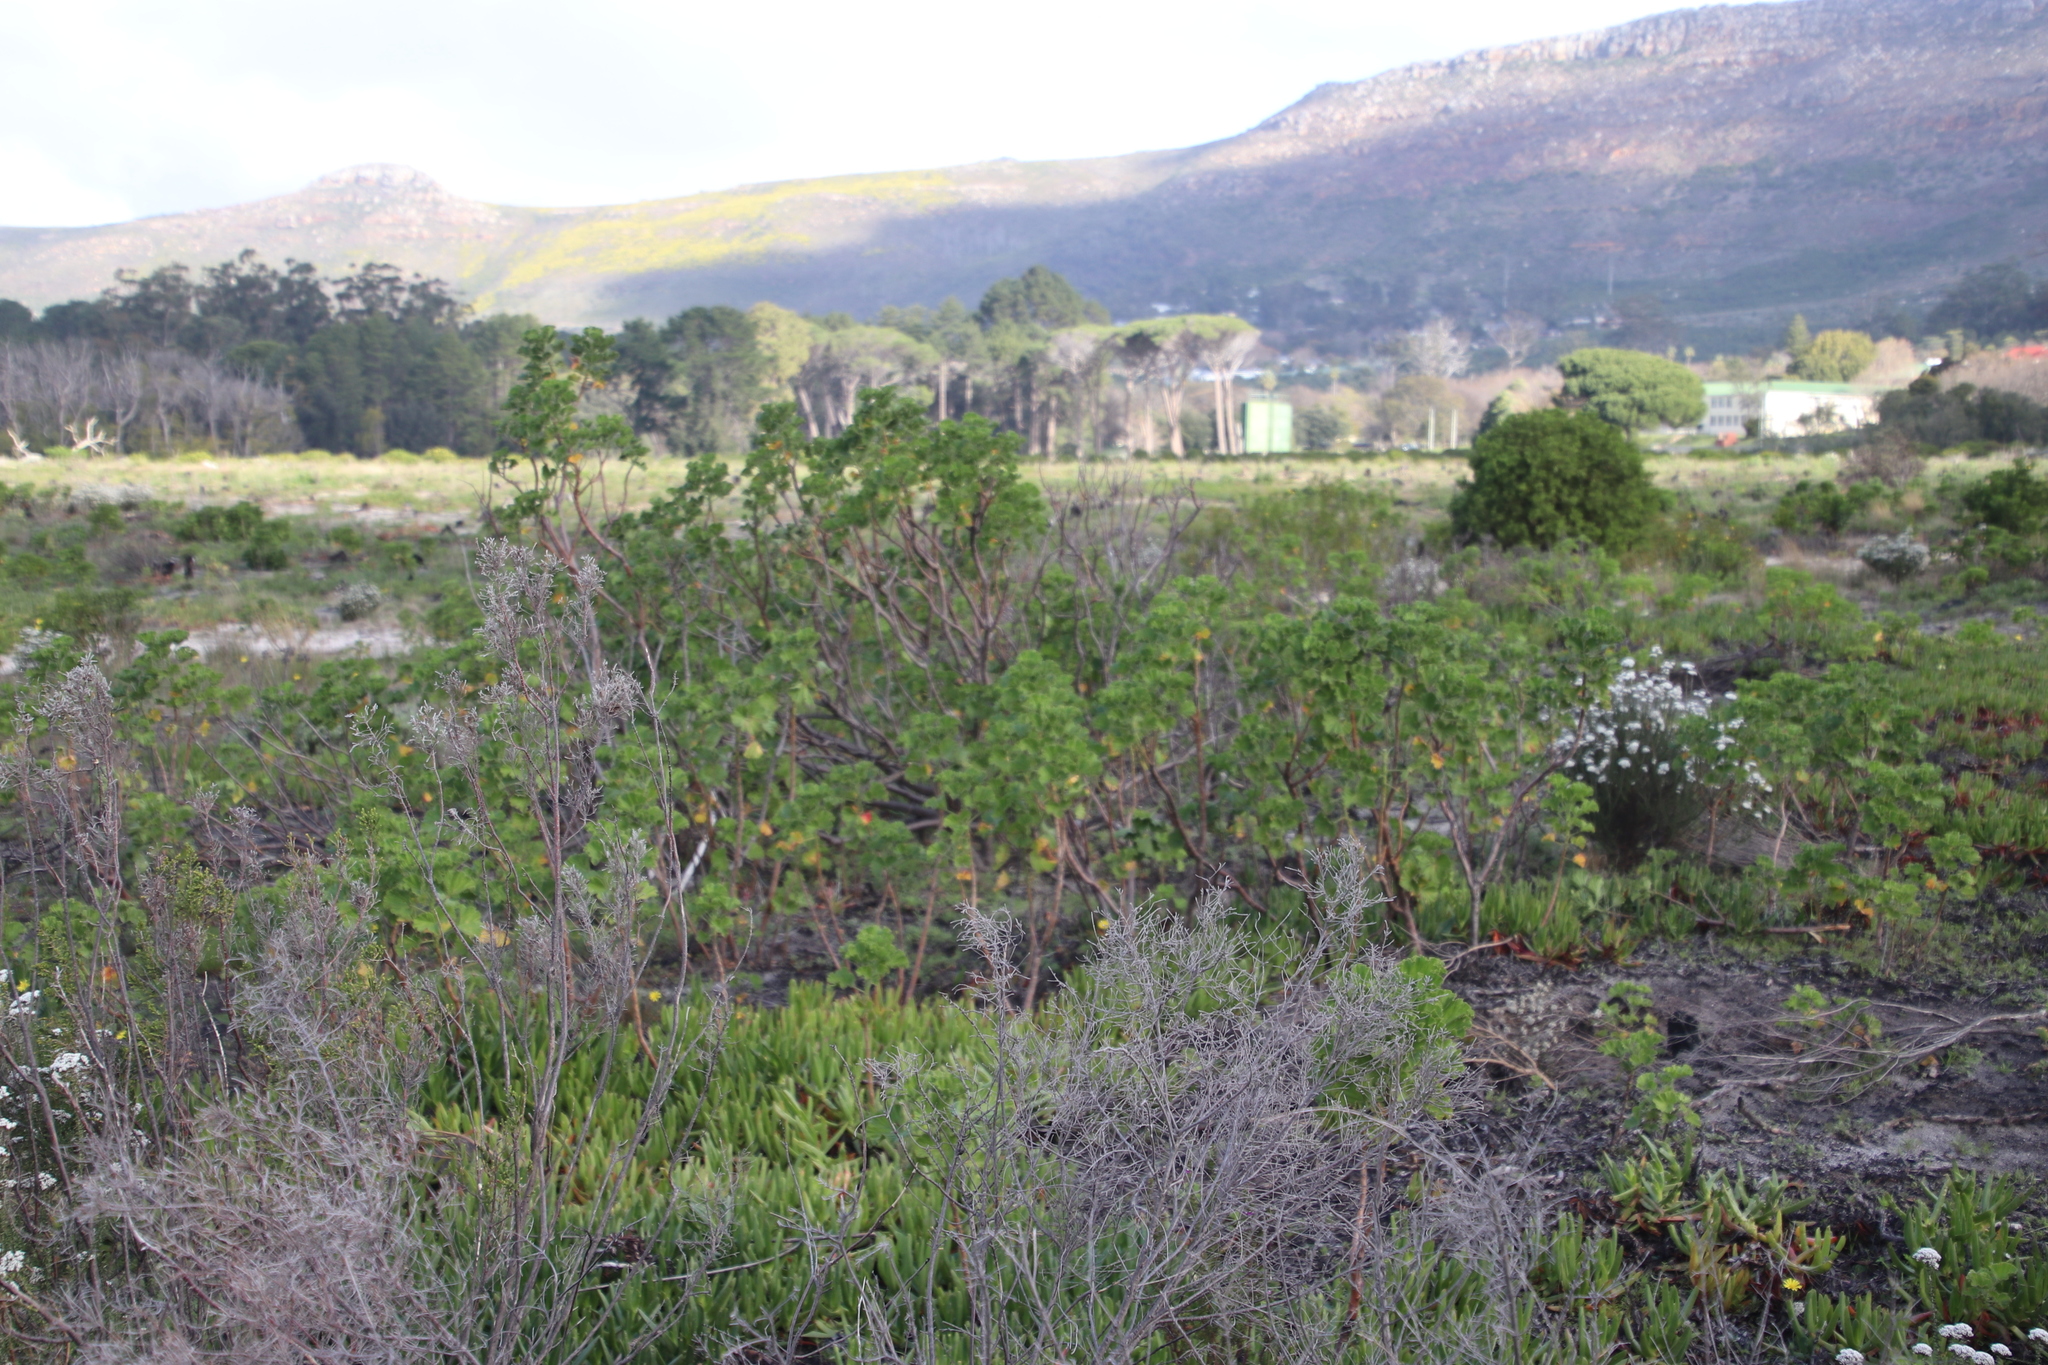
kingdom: Plantae
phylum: Tracheophyta
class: Magnoliopsida
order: Geraniales
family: Geraniaceae
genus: Pelargonium
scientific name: Pelargonium cucullatum
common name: Tree pelargonium
